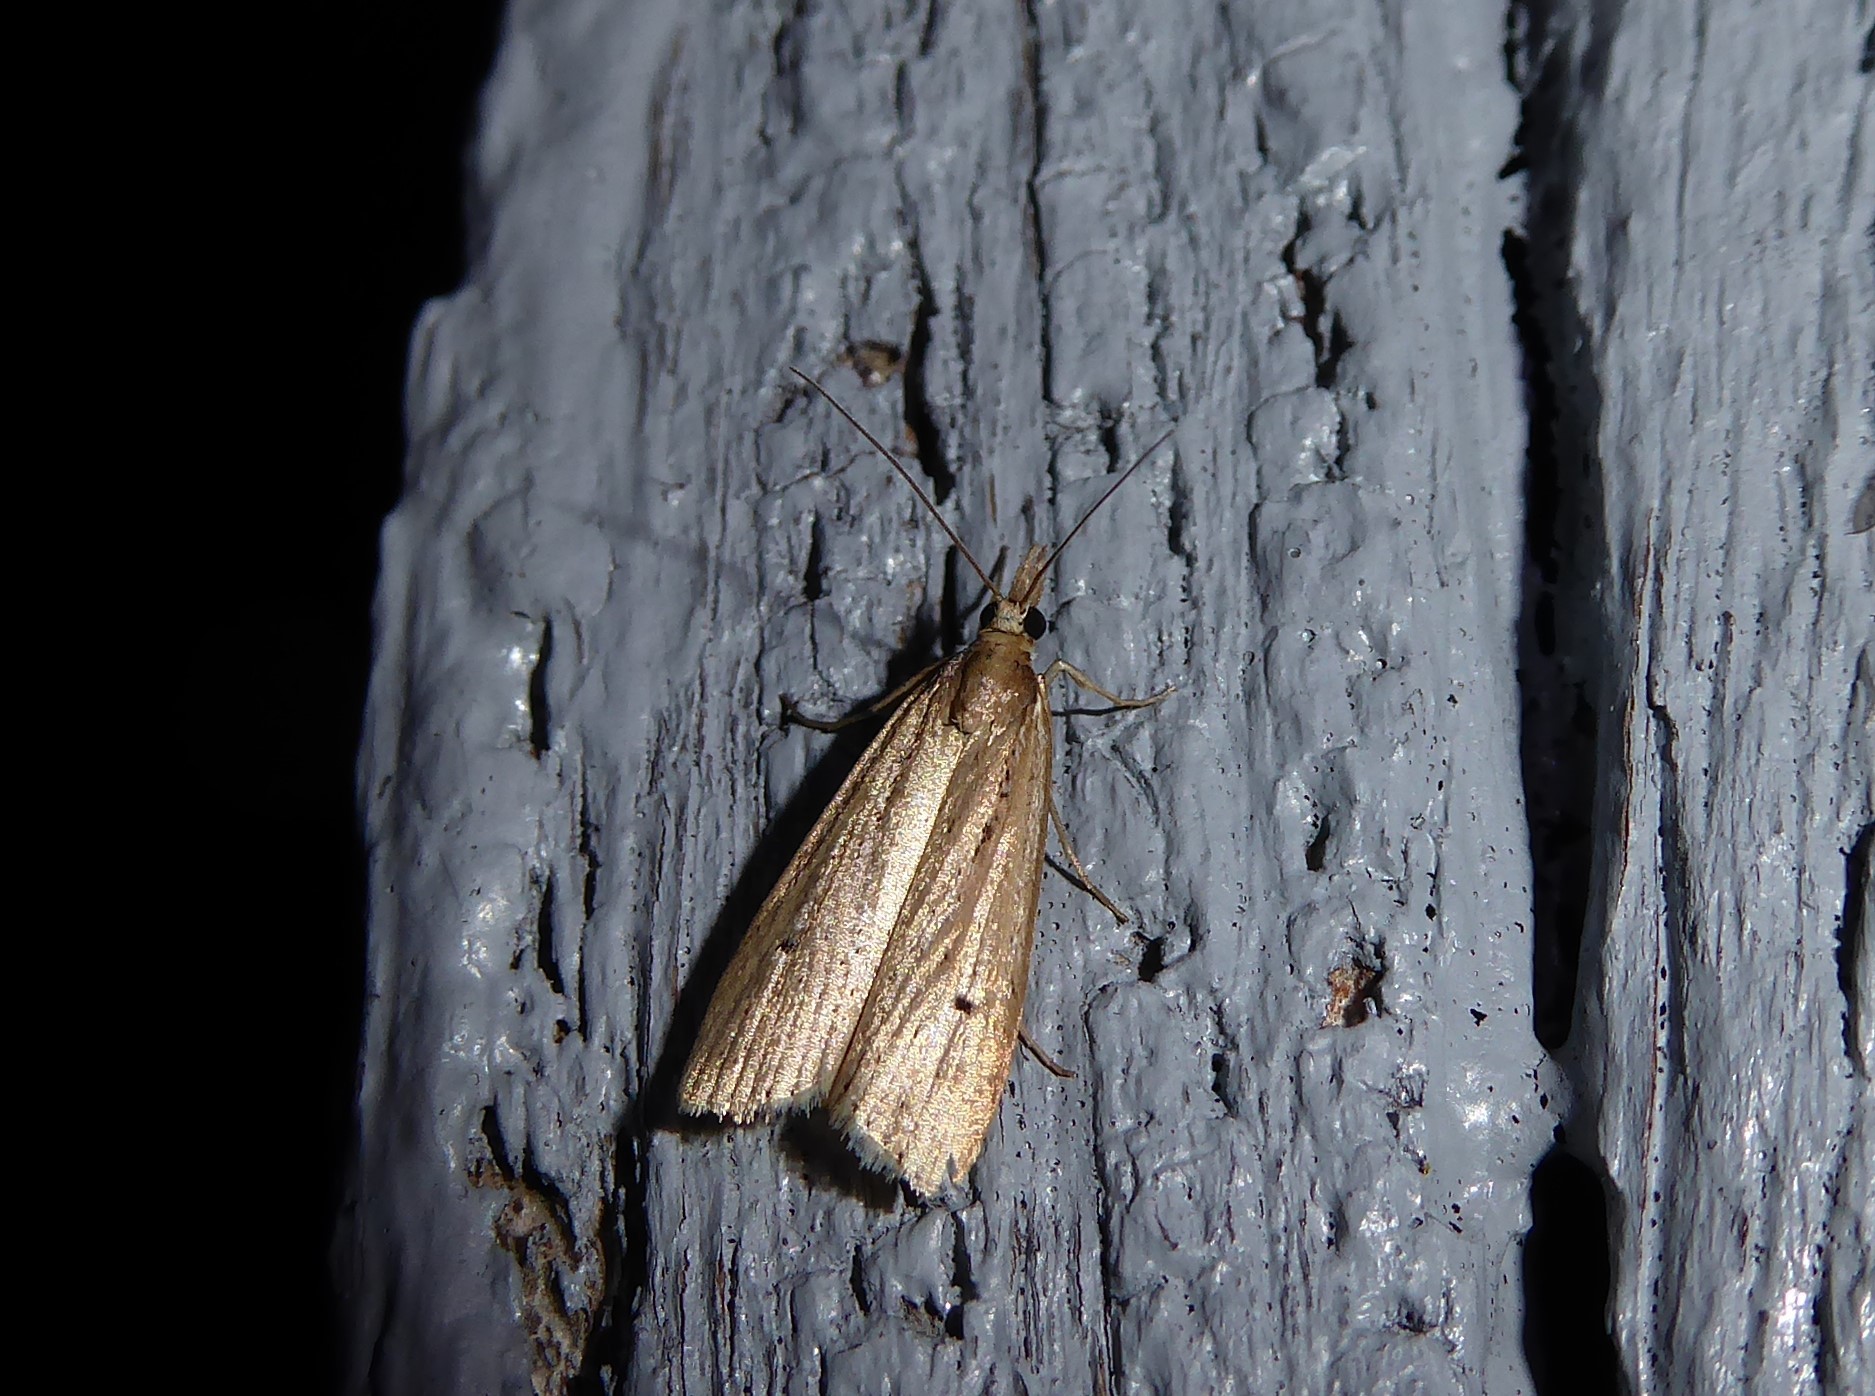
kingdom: Animalia
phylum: Arthropoda
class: Insecta
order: Lepidoptera
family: Crambidae
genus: Eudonia
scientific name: Eudonia sabulosella
